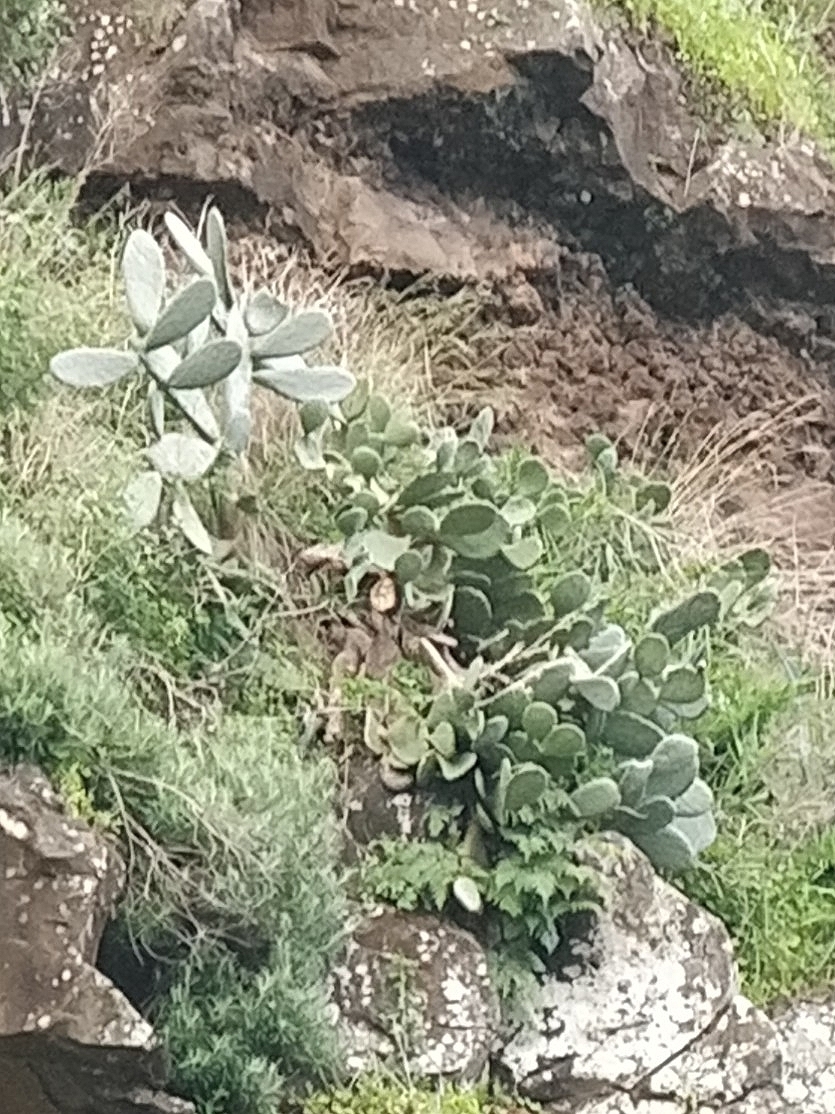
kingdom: Plantae
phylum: Tracheophyta
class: Magnoliopsida
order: Caryophyllales
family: Cactaceae
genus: Opuntia
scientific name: Opuntia ficus-indica
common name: Barbary fig
